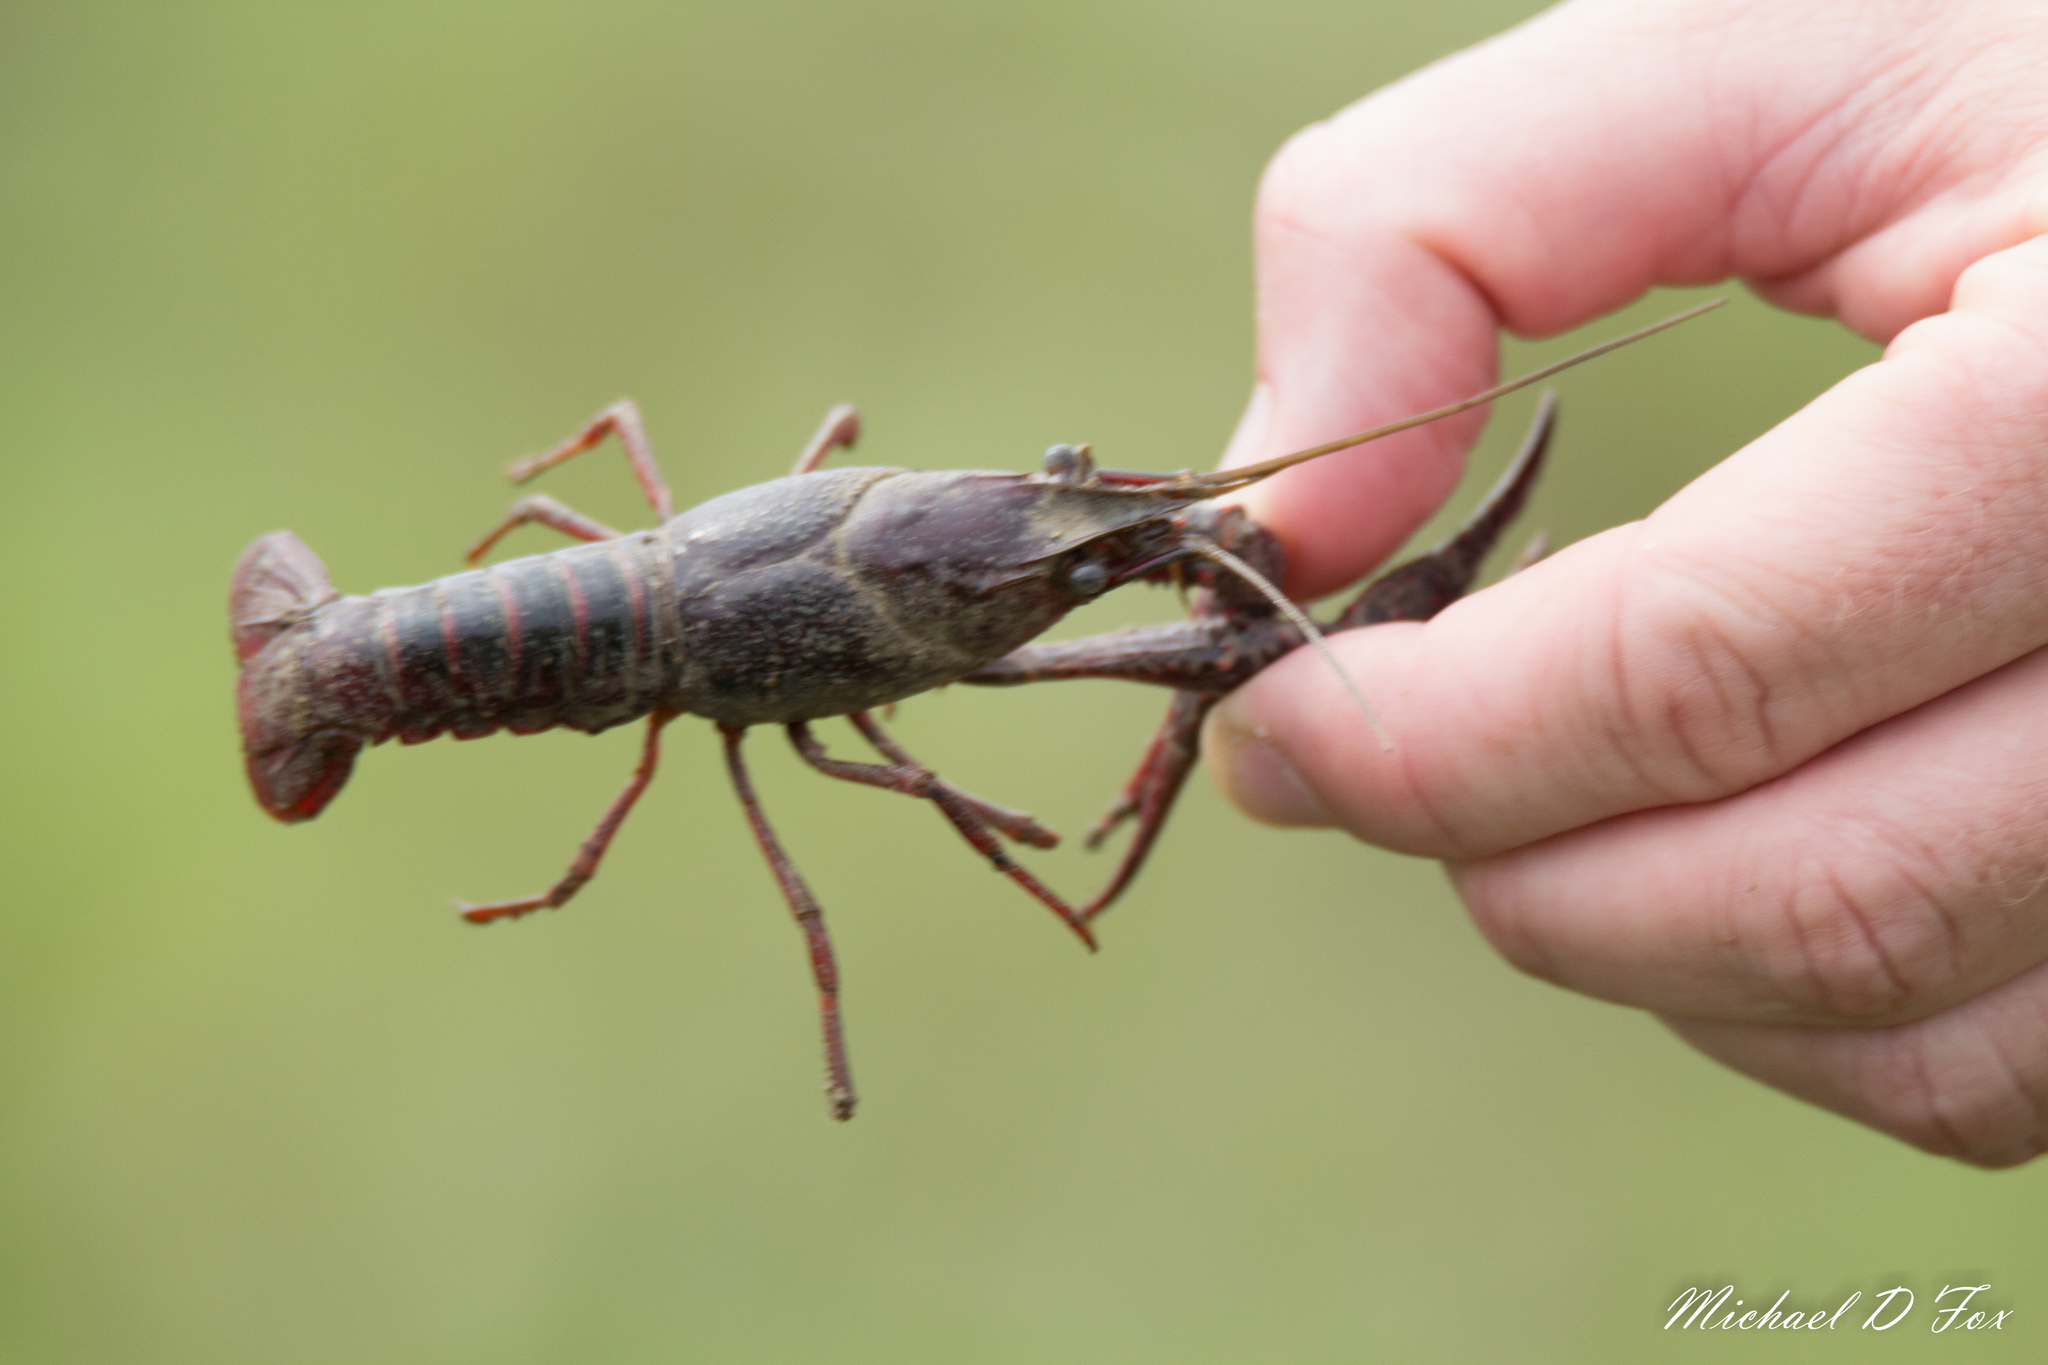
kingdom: Animalia
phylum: Arthropoda
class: Malacostraca
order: Decapoda
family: Cambaridae
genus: Procambarus
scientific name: Procambarus clarkii
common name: Red swamp crayfish
